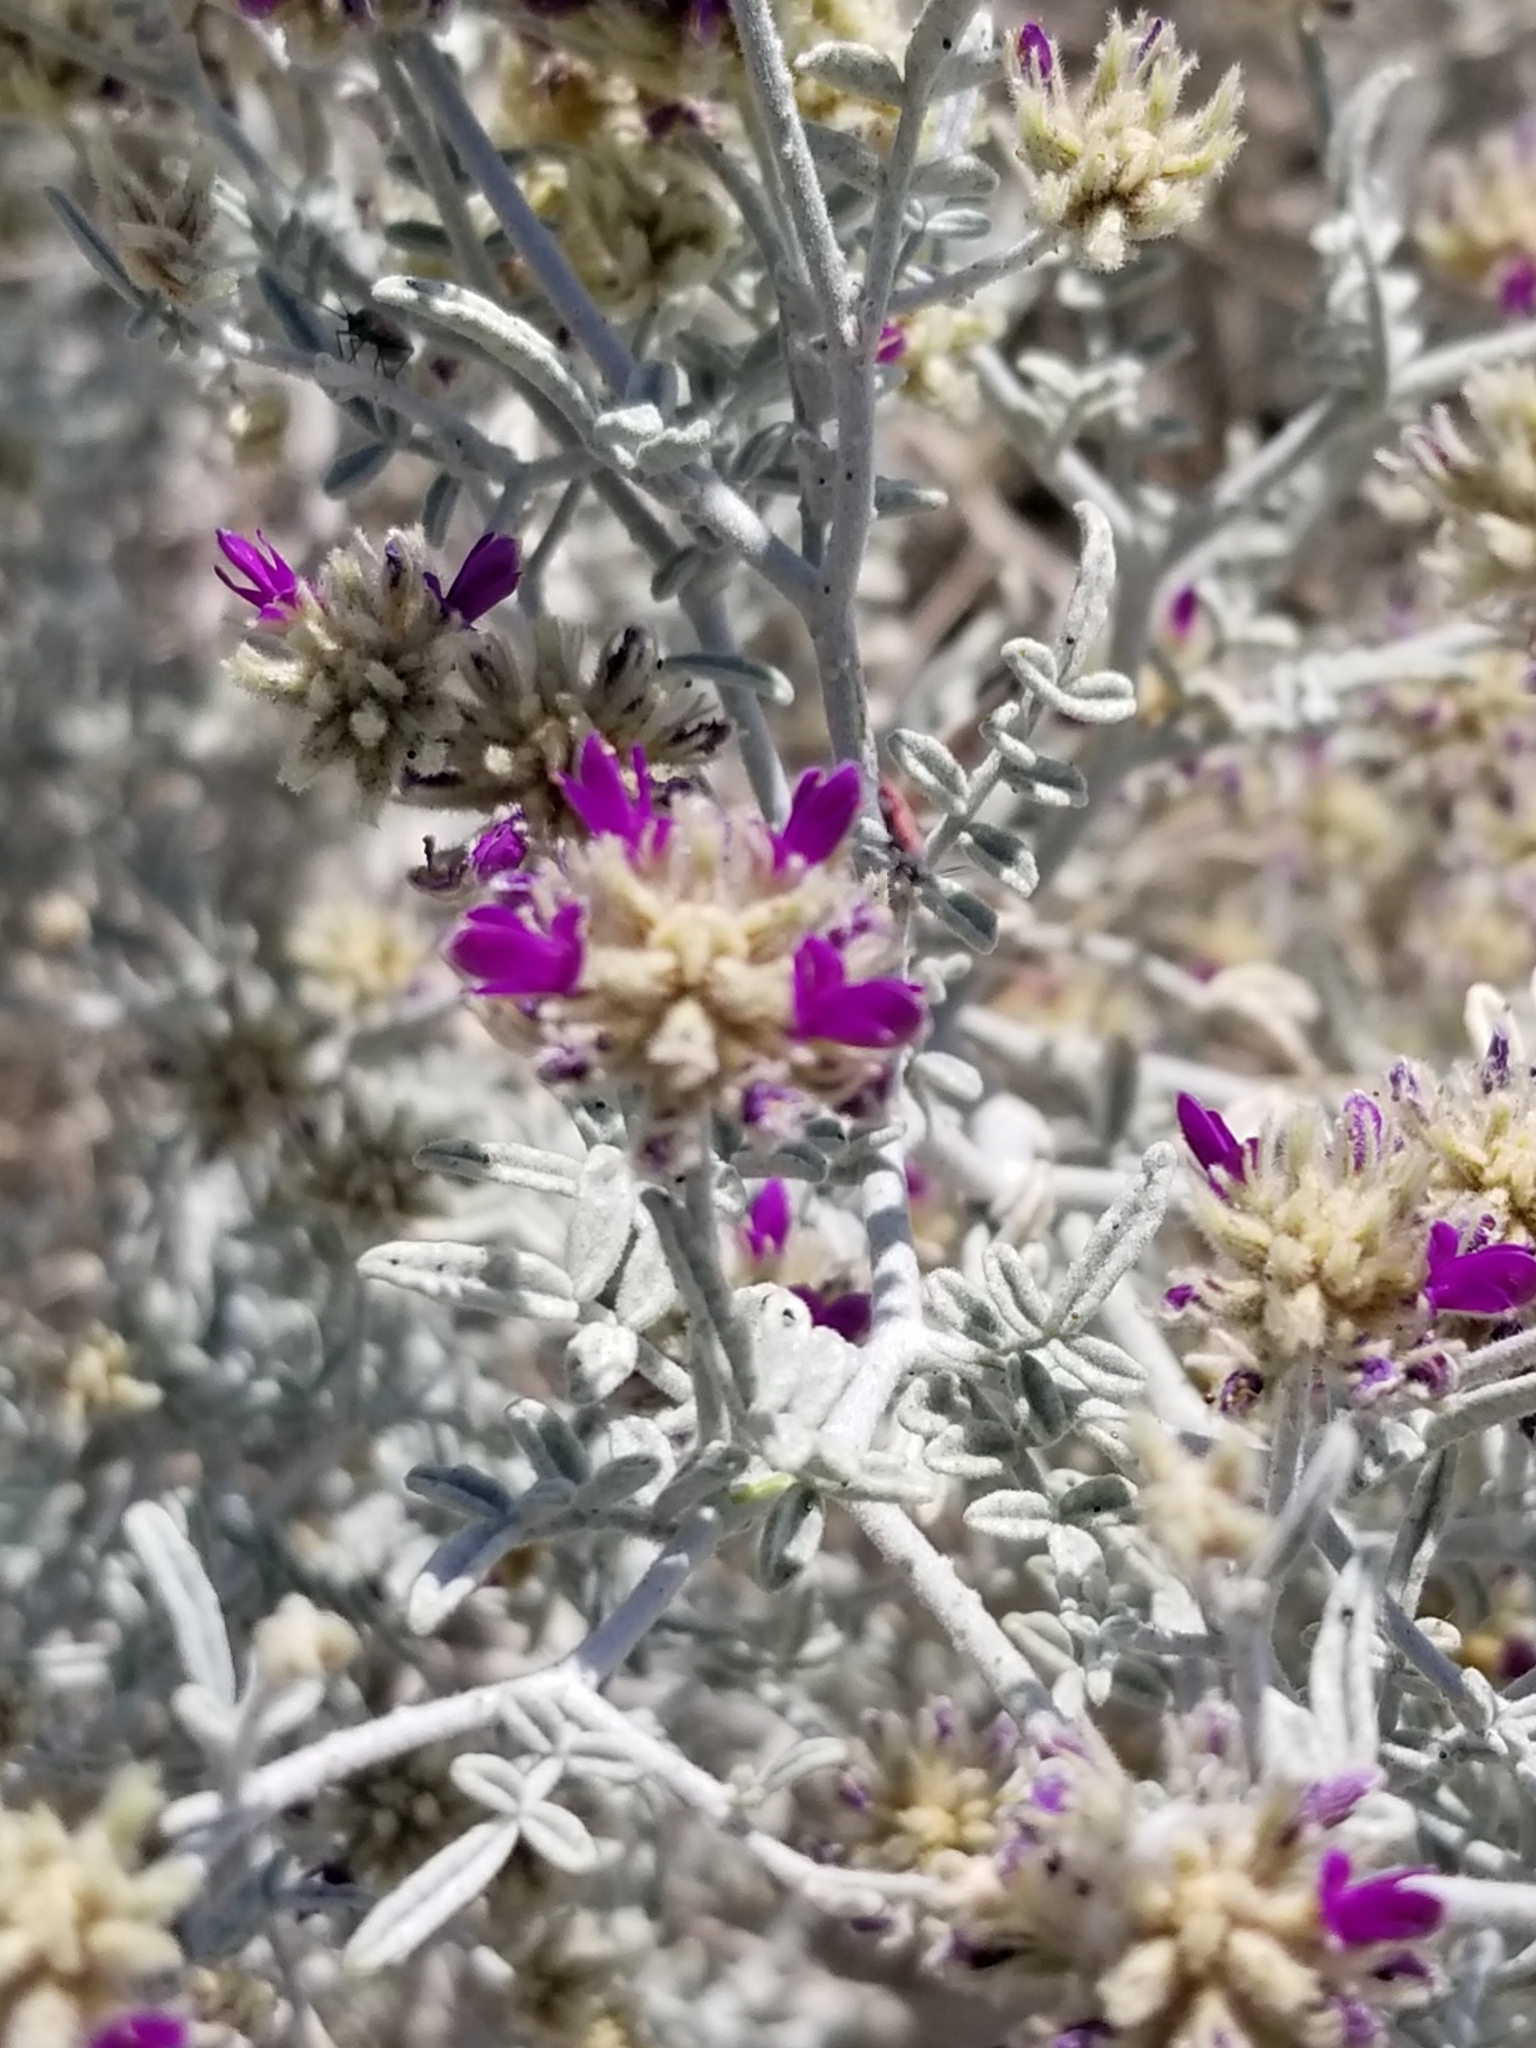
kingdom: Plantae
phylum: Tracheophyta
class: Magnoliopsida
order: Fabales
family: Fabaceae
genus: Psorothamnus
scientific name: Psorothamnus emoryi
